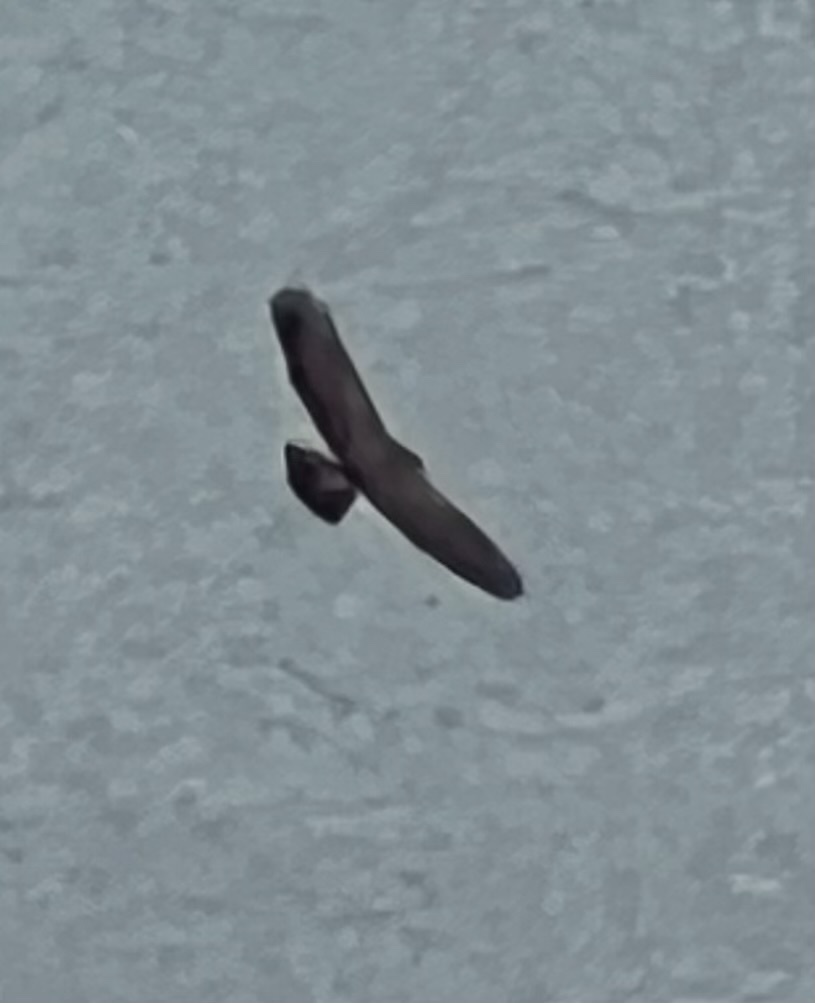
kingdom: Animalia
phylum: Chordata
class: Aves
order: Accipitriformes
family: Accipitridae
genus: Buteo
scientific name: Buteo buteo
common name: Common buzzard
